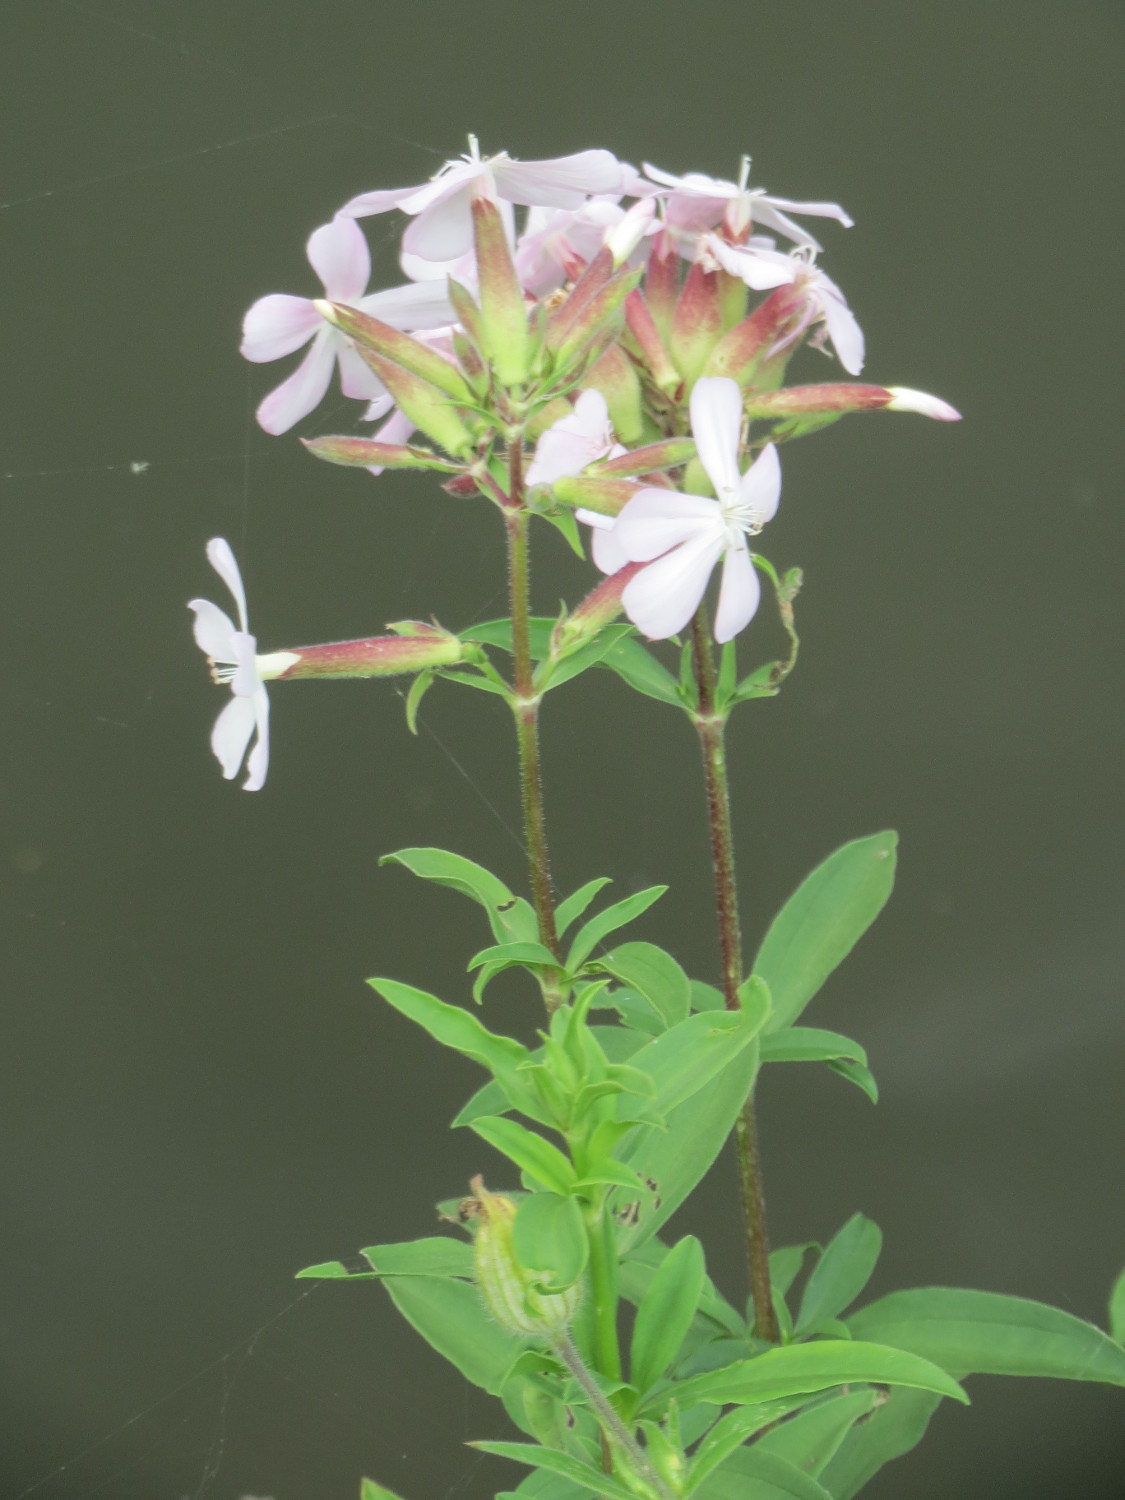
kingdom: Plantae
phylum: Tracheophyta
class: Magnoliopsida
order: Caryophyllales
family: Caryophyllaceae
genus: Saponaria
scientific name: Saponaria officinalis
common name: Soapwort
